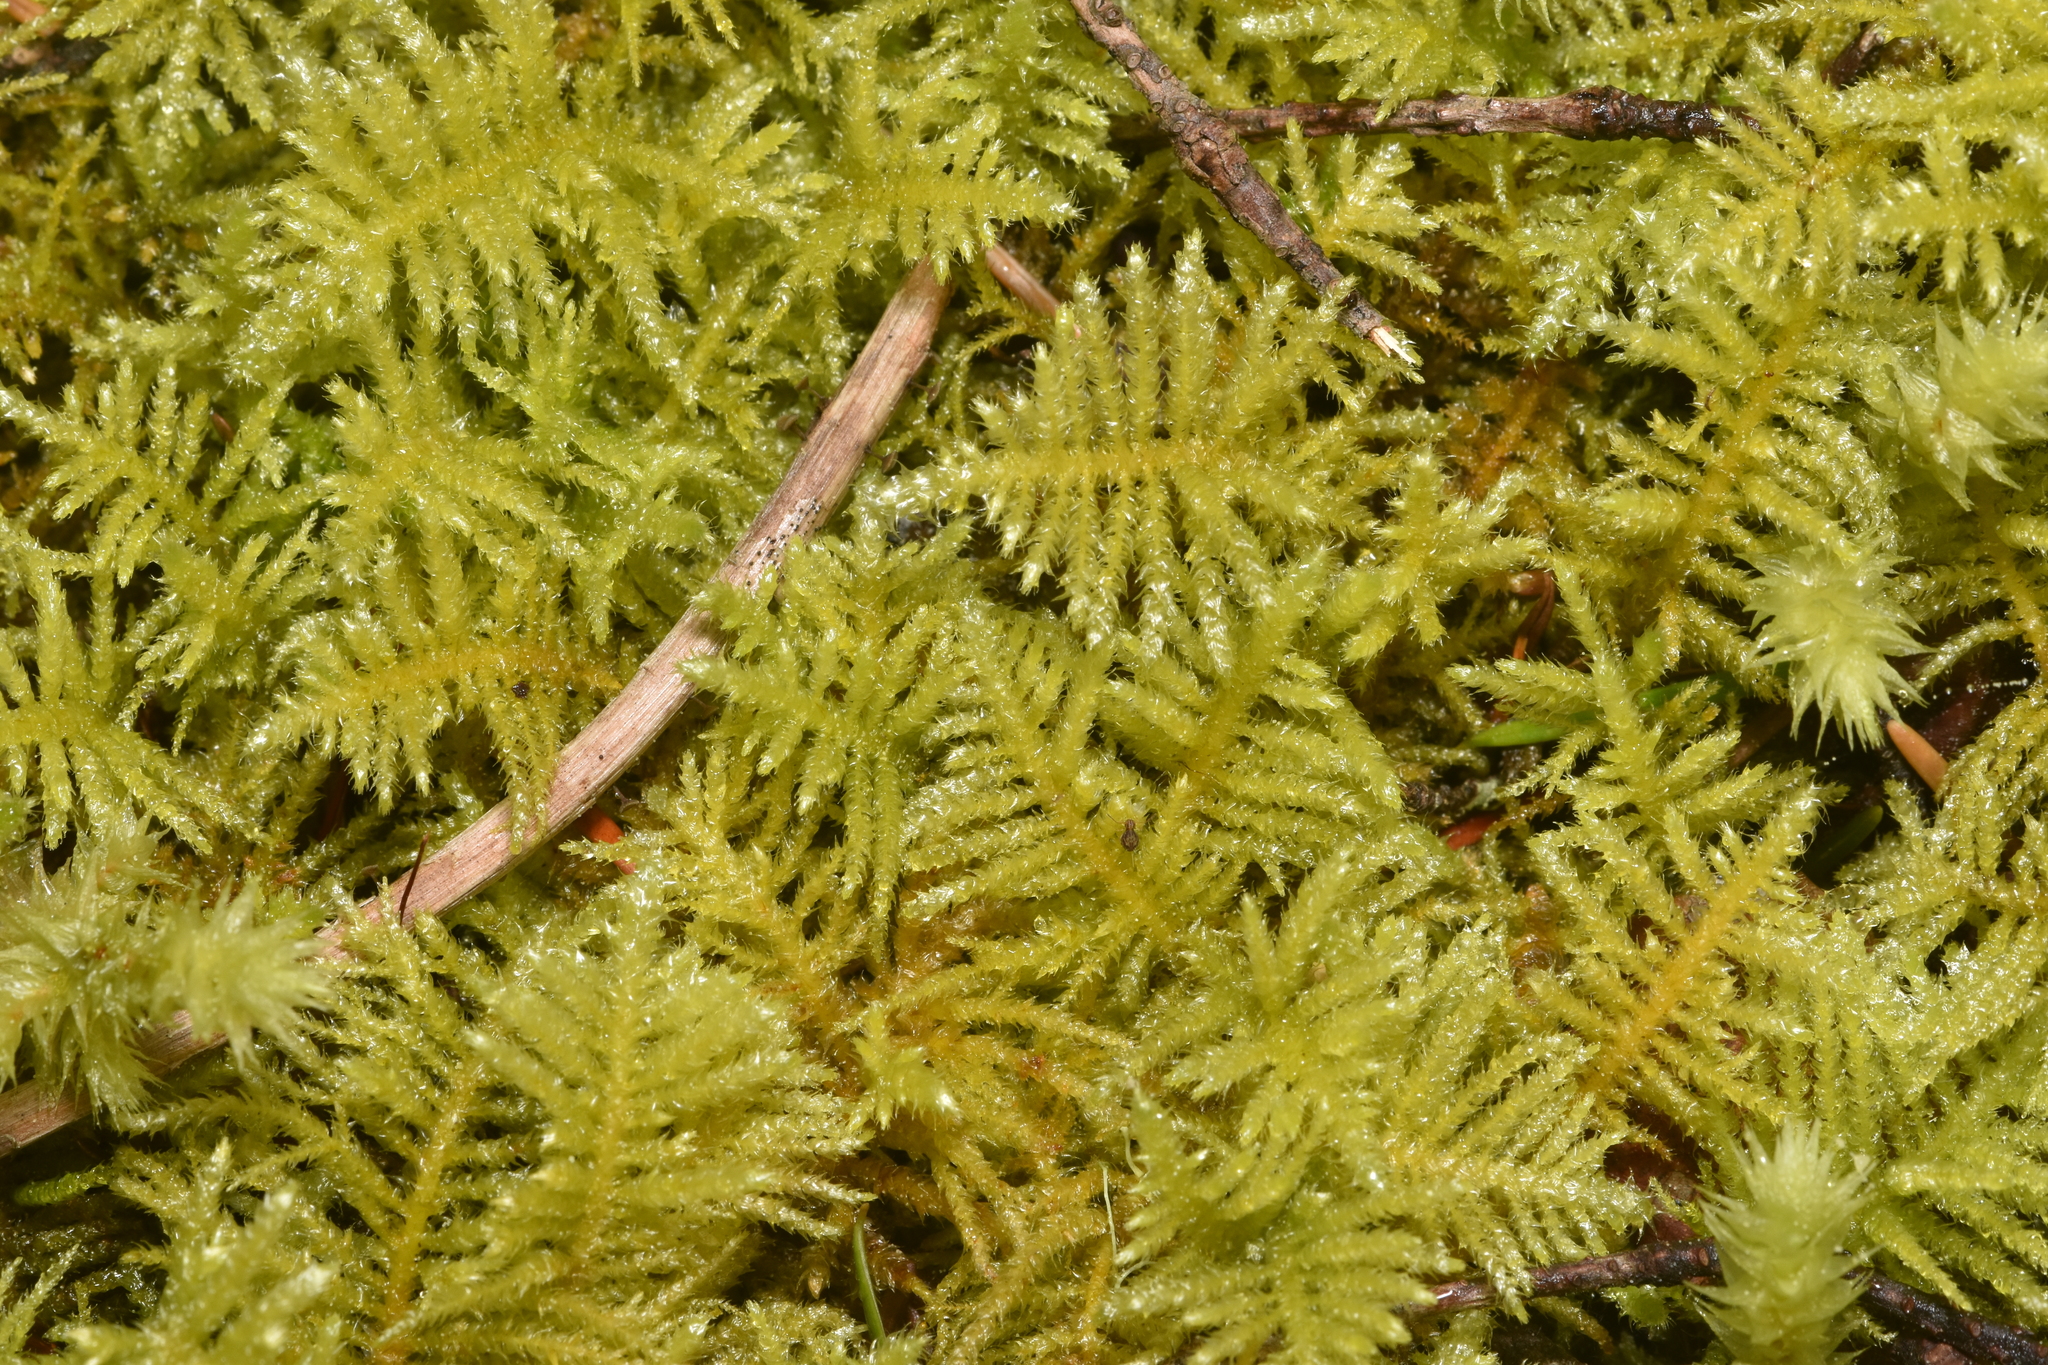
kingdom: Plantae
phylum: Bryophyta
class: Bryopsida
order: Hypnales
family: Brachytheciaceae
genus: Kindbergia
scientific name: Kindbergia oregana
